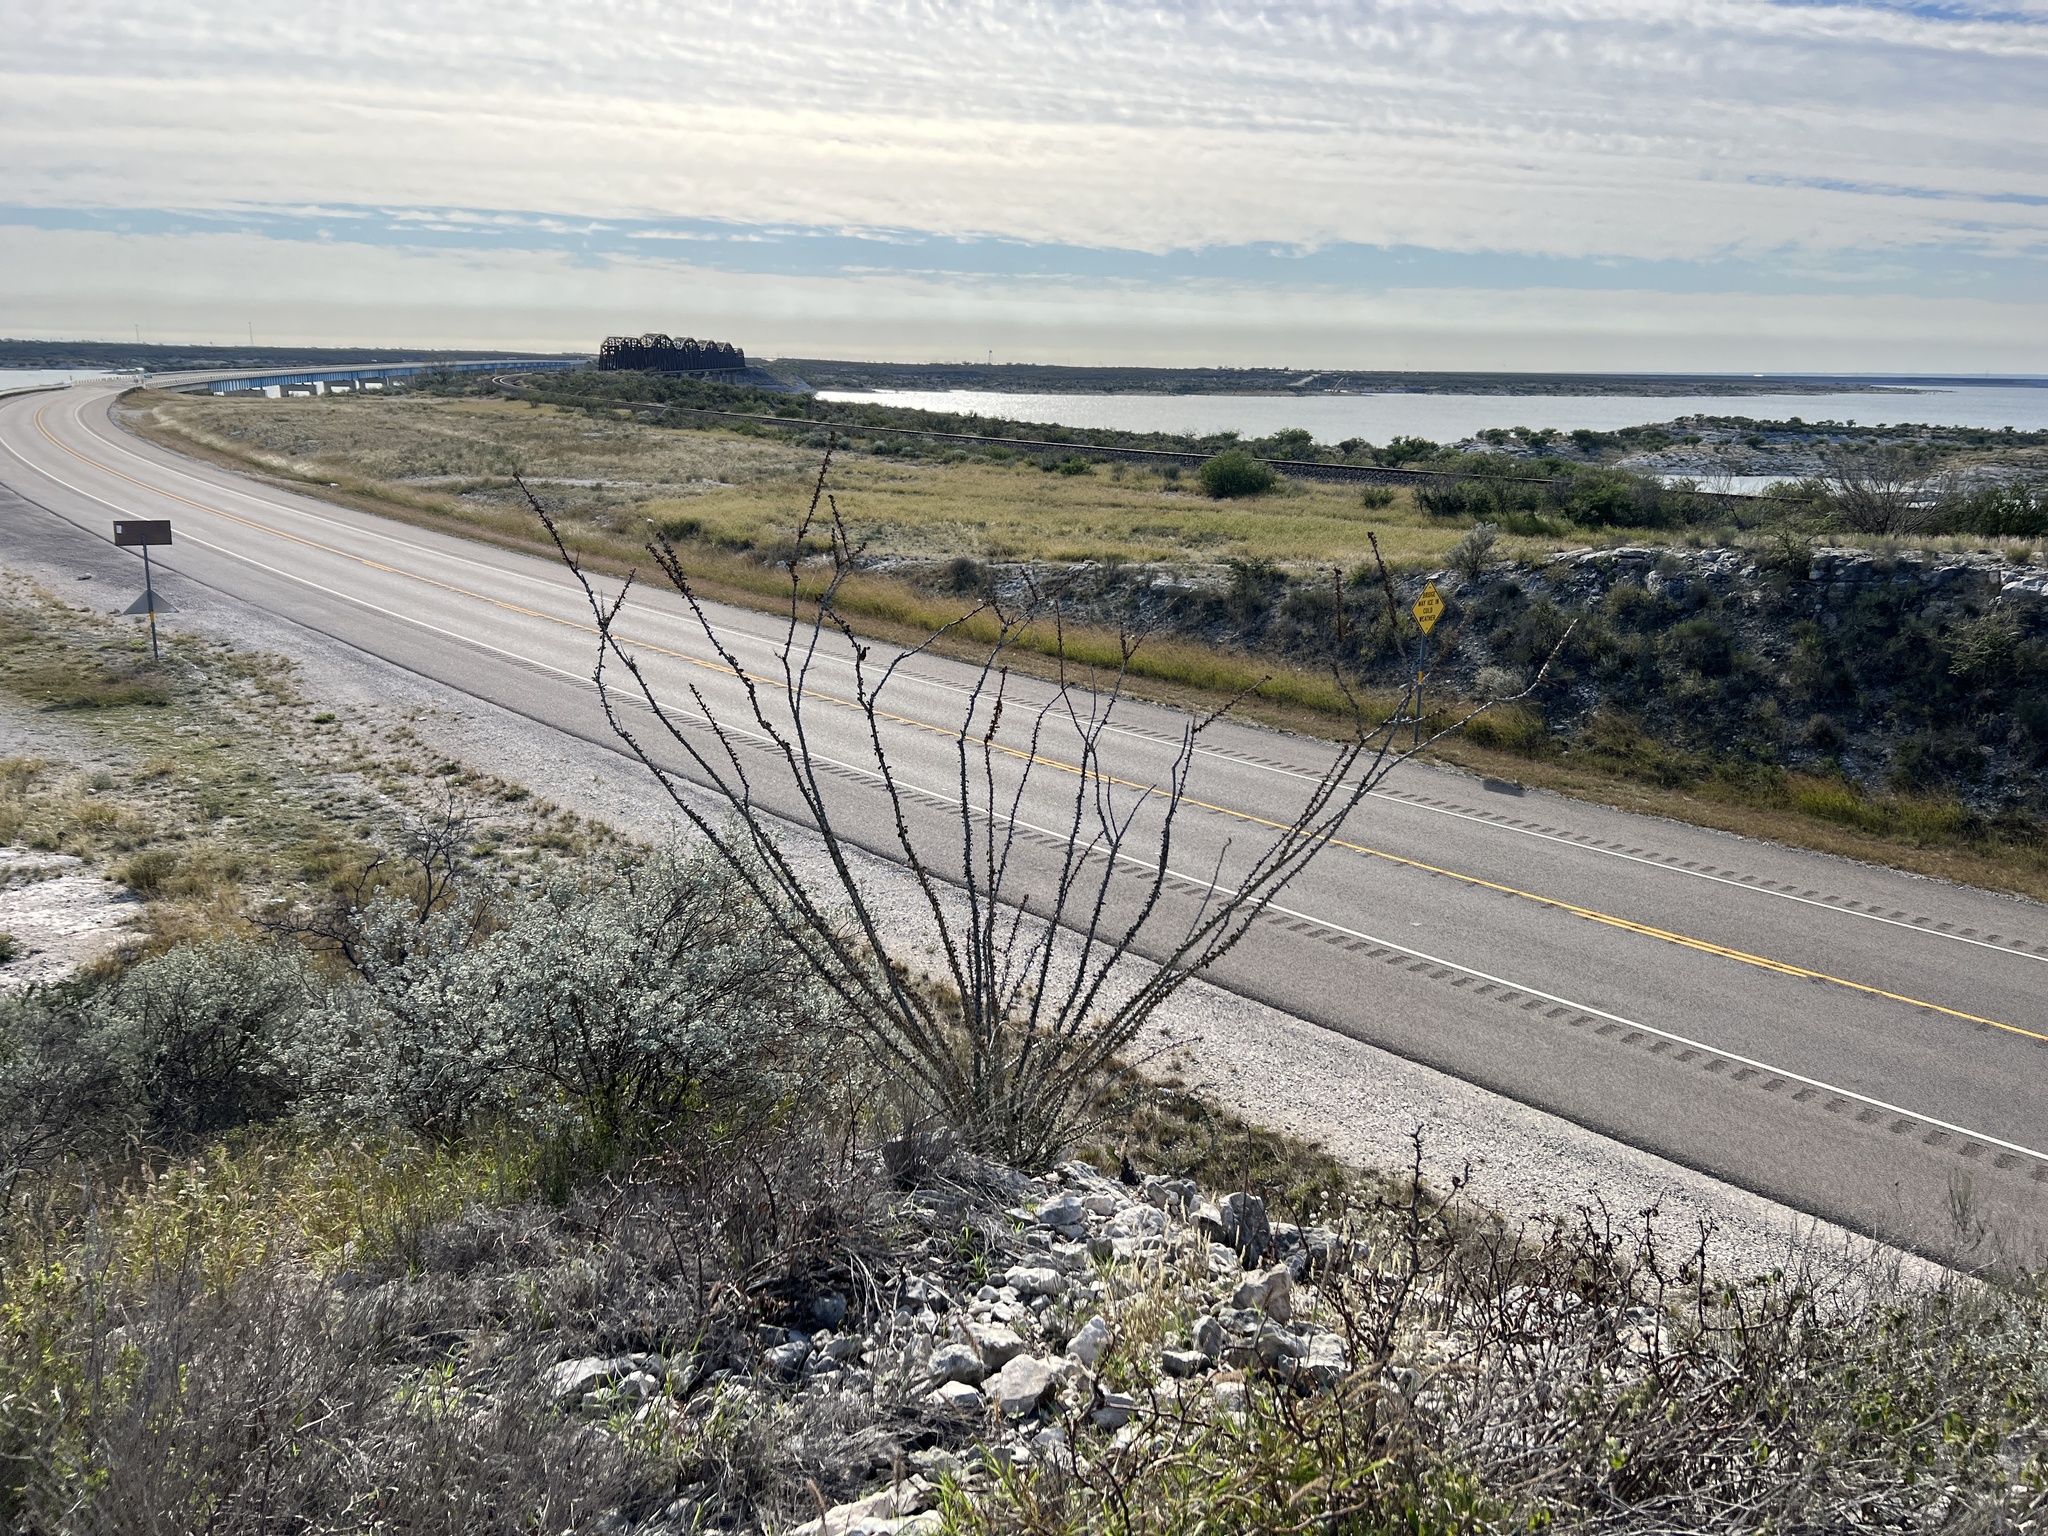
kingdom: Plantae
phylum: Tracheophyta
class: Magnoliopsida
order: Ericales
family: Fouquieriaceae
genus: Fouquieria
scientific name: Fouquieria splendens
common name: Vine-cactus
